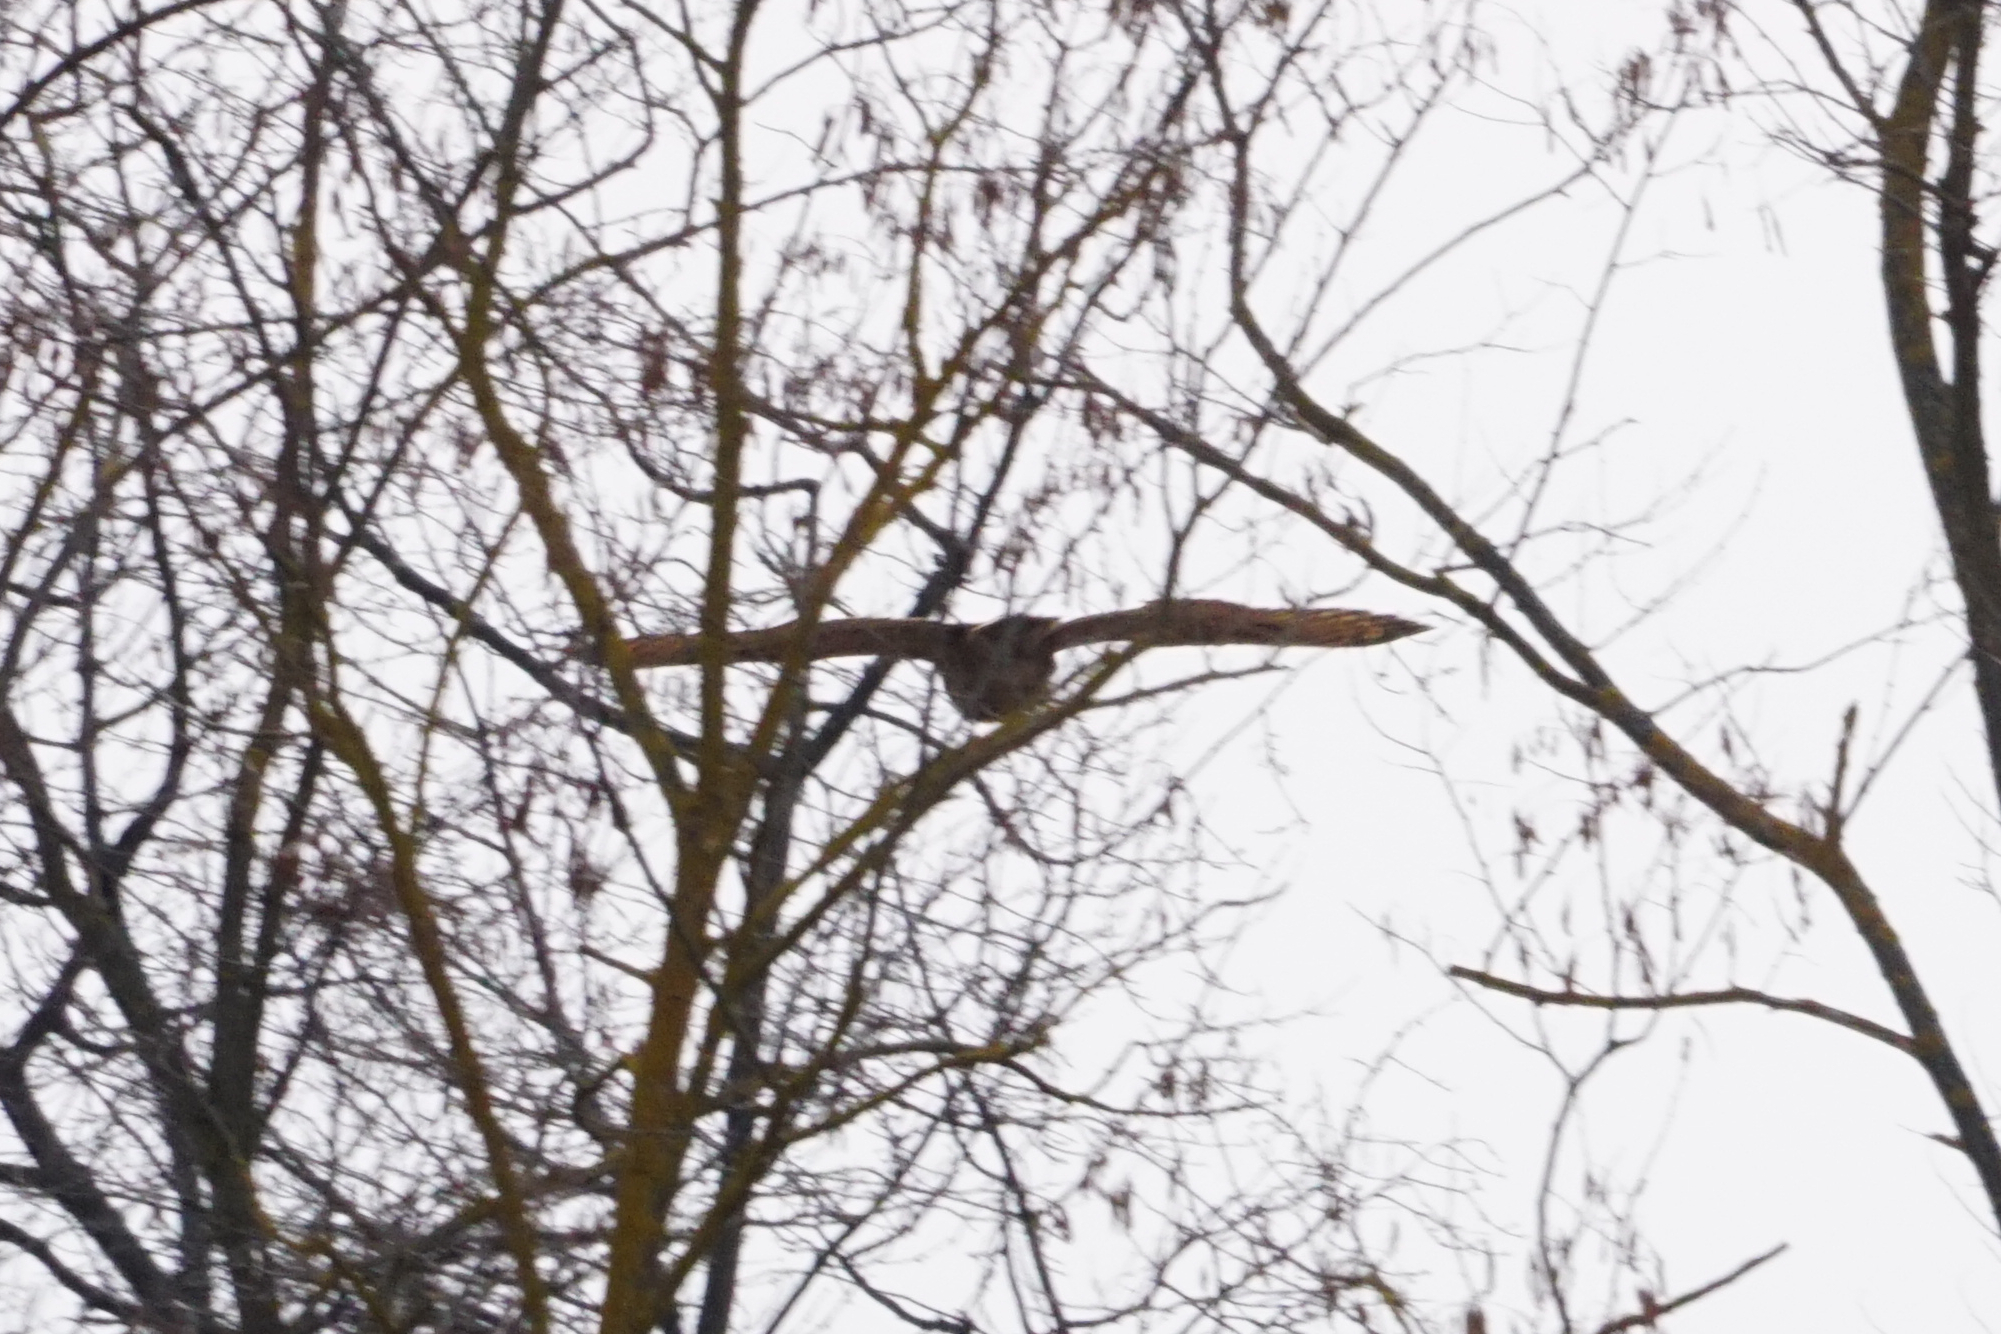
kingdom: Animalia
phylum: Chordata
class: Aves
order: Strigiformes
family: Strigidae
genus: Bubo
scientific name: Bubo bubo
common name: Eurasian eagle-owl
